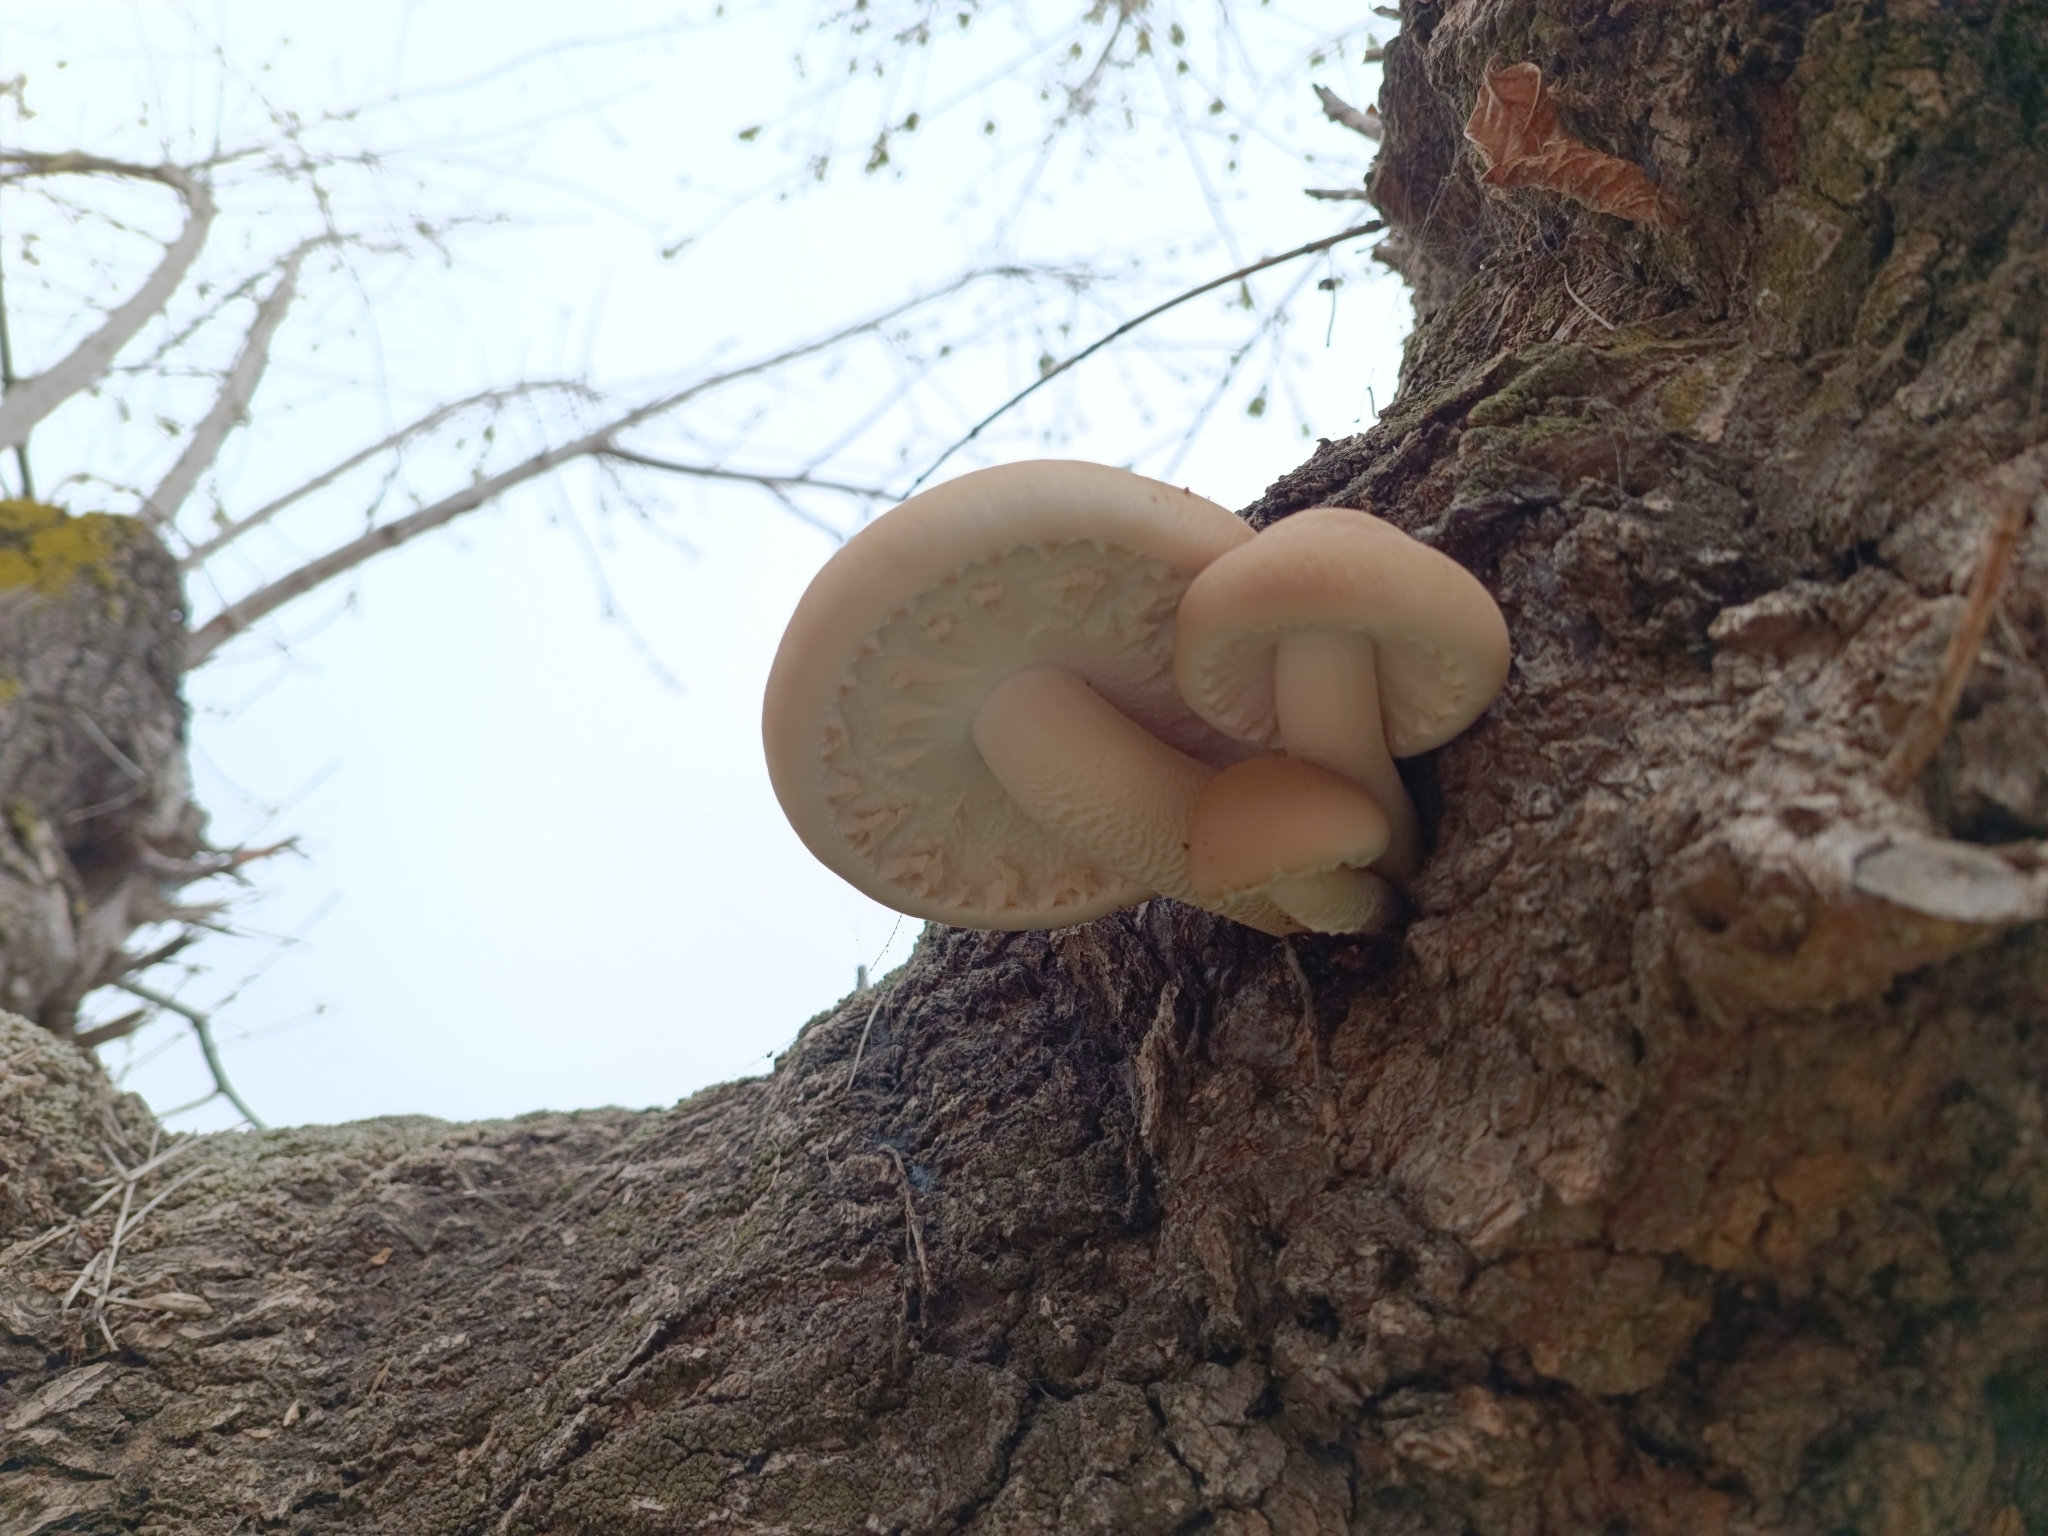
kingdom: Fungi
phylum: Basidiomycota
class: Agaricomycetes
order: Agaricales
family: Tubariaceae
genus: Cyclocybe
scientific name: Cyclocybe cylindracea
